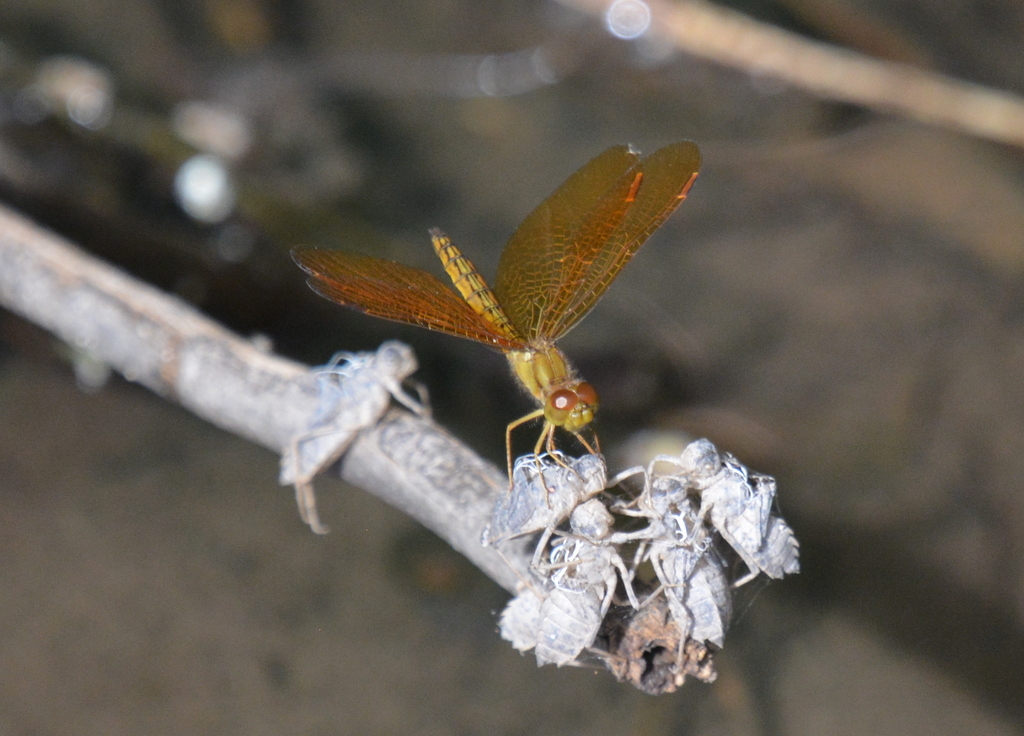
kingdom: Animalia
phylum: Arthropoda
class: Insecta
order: Odonata
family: Libellulidae
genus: Perithemis
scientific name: Perithemis icteroptera
